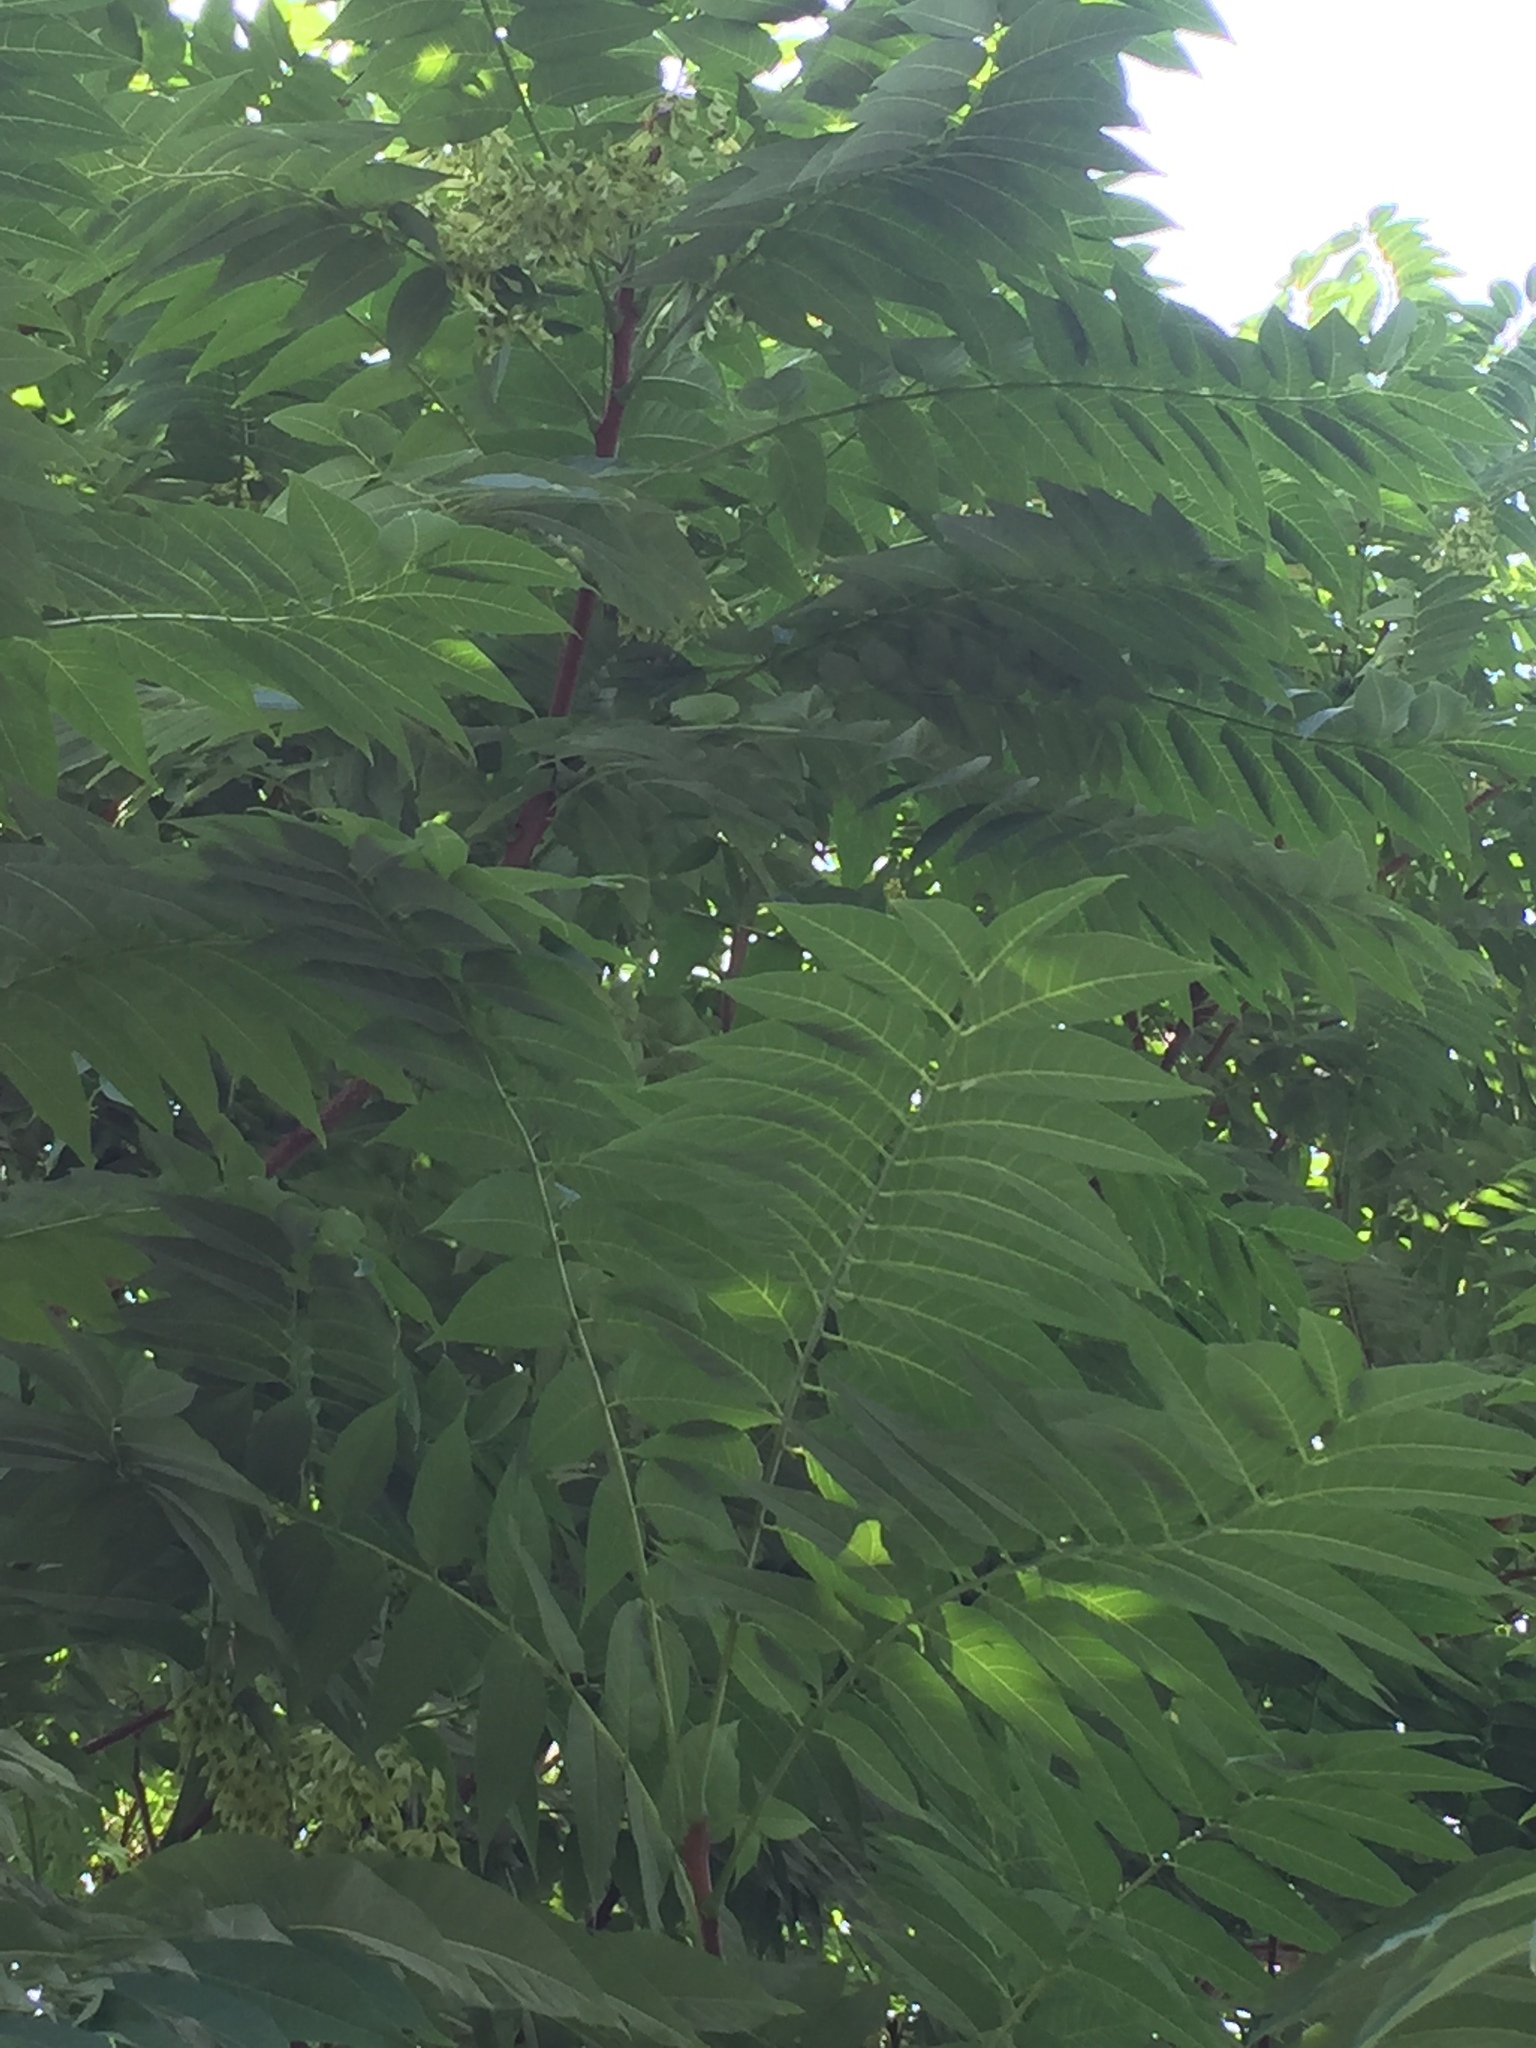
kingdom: Plantae
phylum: Tracheophyta
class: Magnoliopsida
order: Sapindales
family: Simaroubaceae
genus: Ailanthus
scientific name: Ailanthus altissima
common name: Tree-of-heaven
